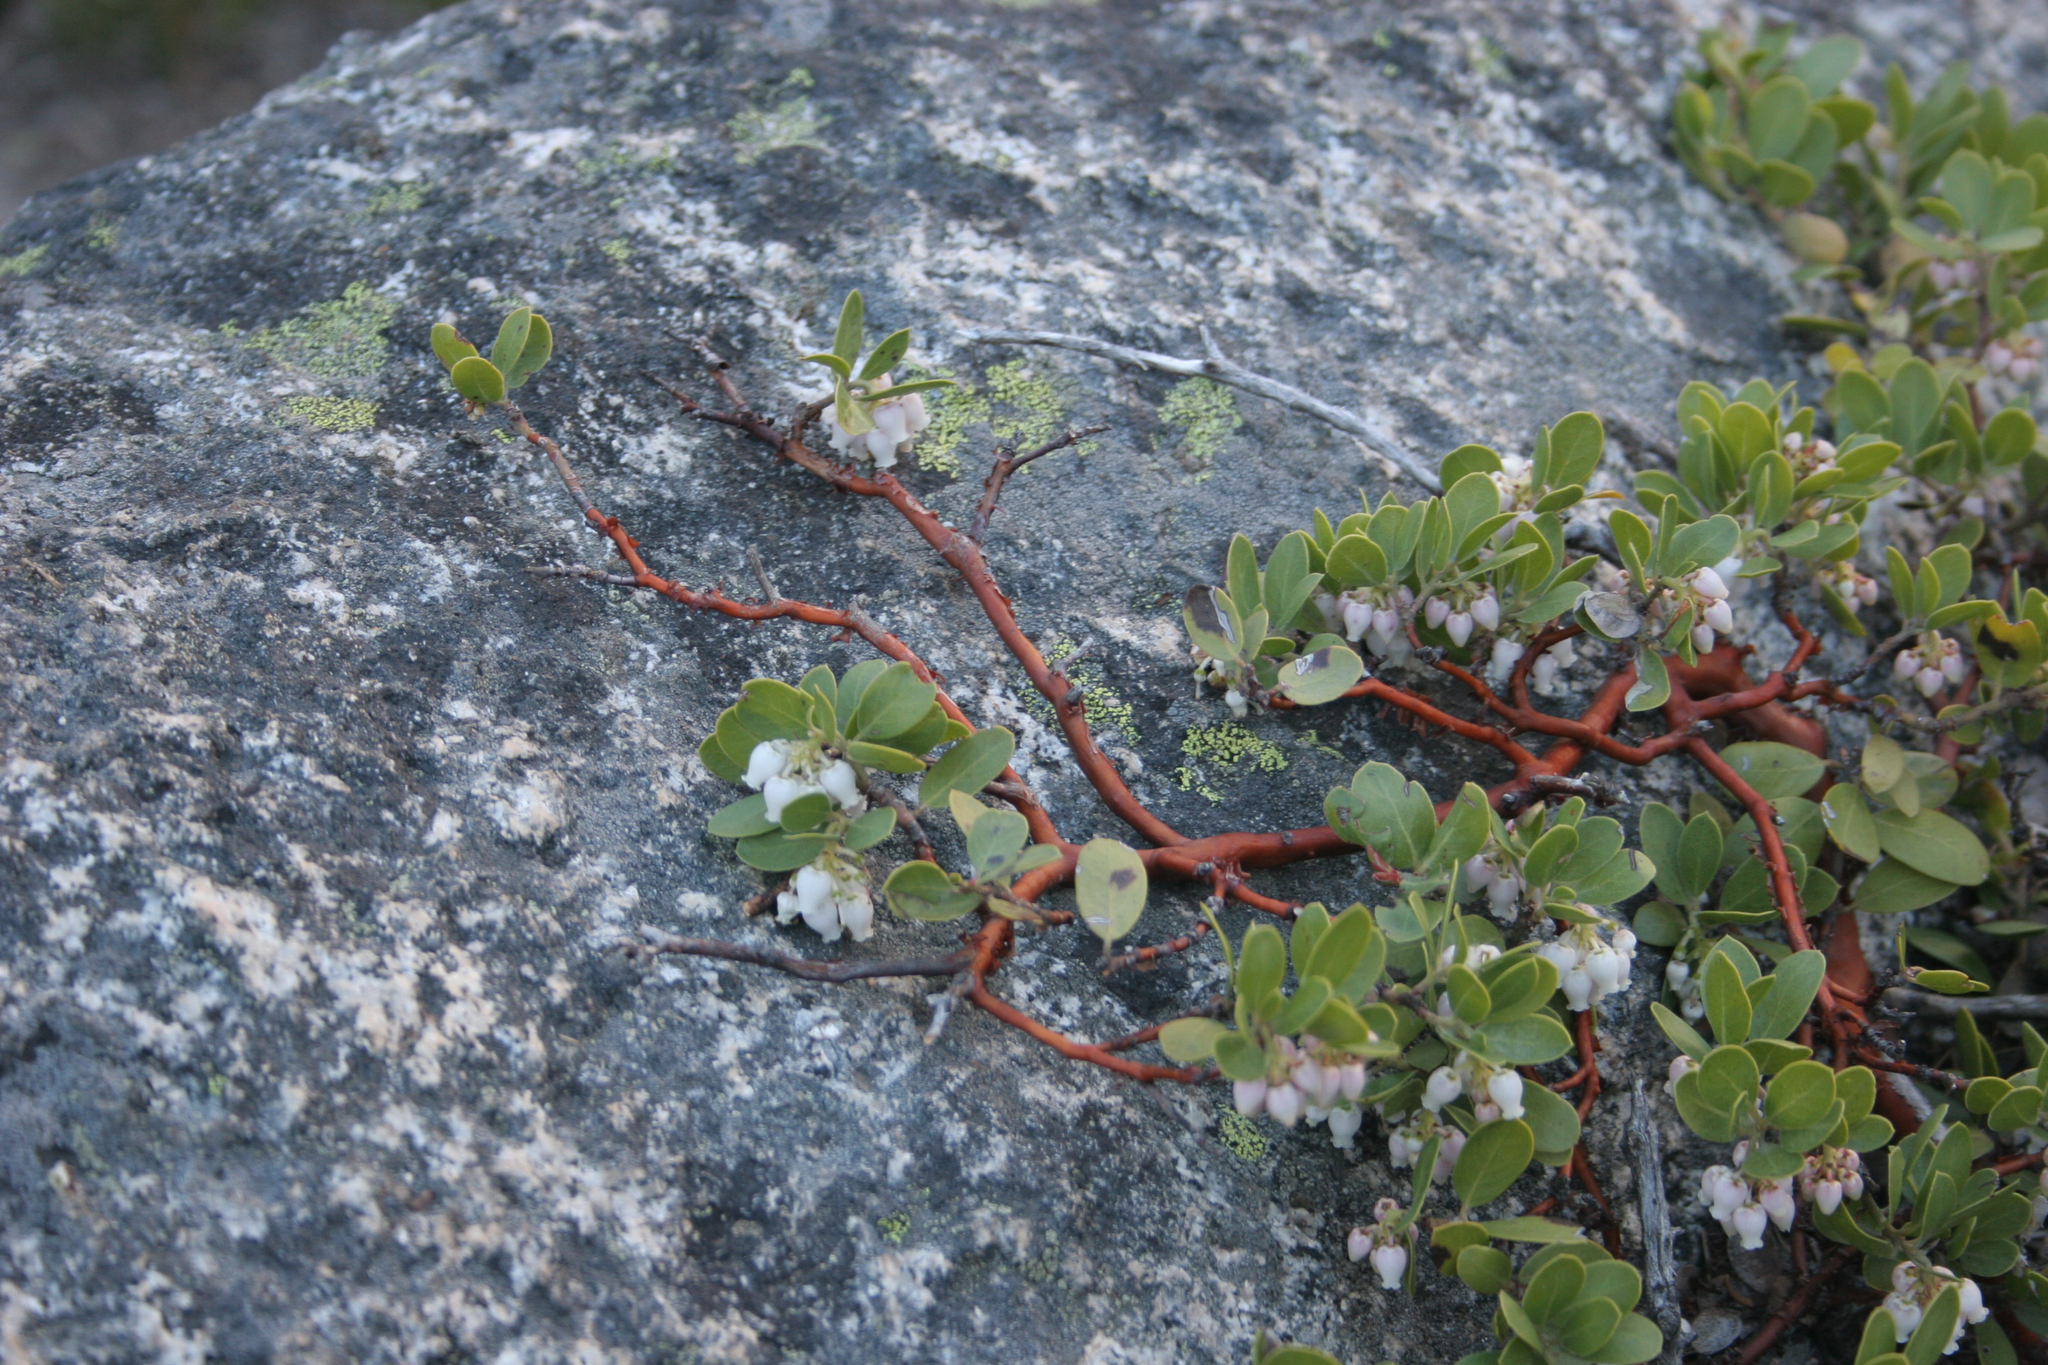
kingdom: Plantae
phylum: Tracheophyta
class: Magnoliopsida
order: Ericales
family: Ericaceae
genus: Arctostaphylos
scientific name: Arctostaphylos nevadensis
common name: Pinemat manzanita
